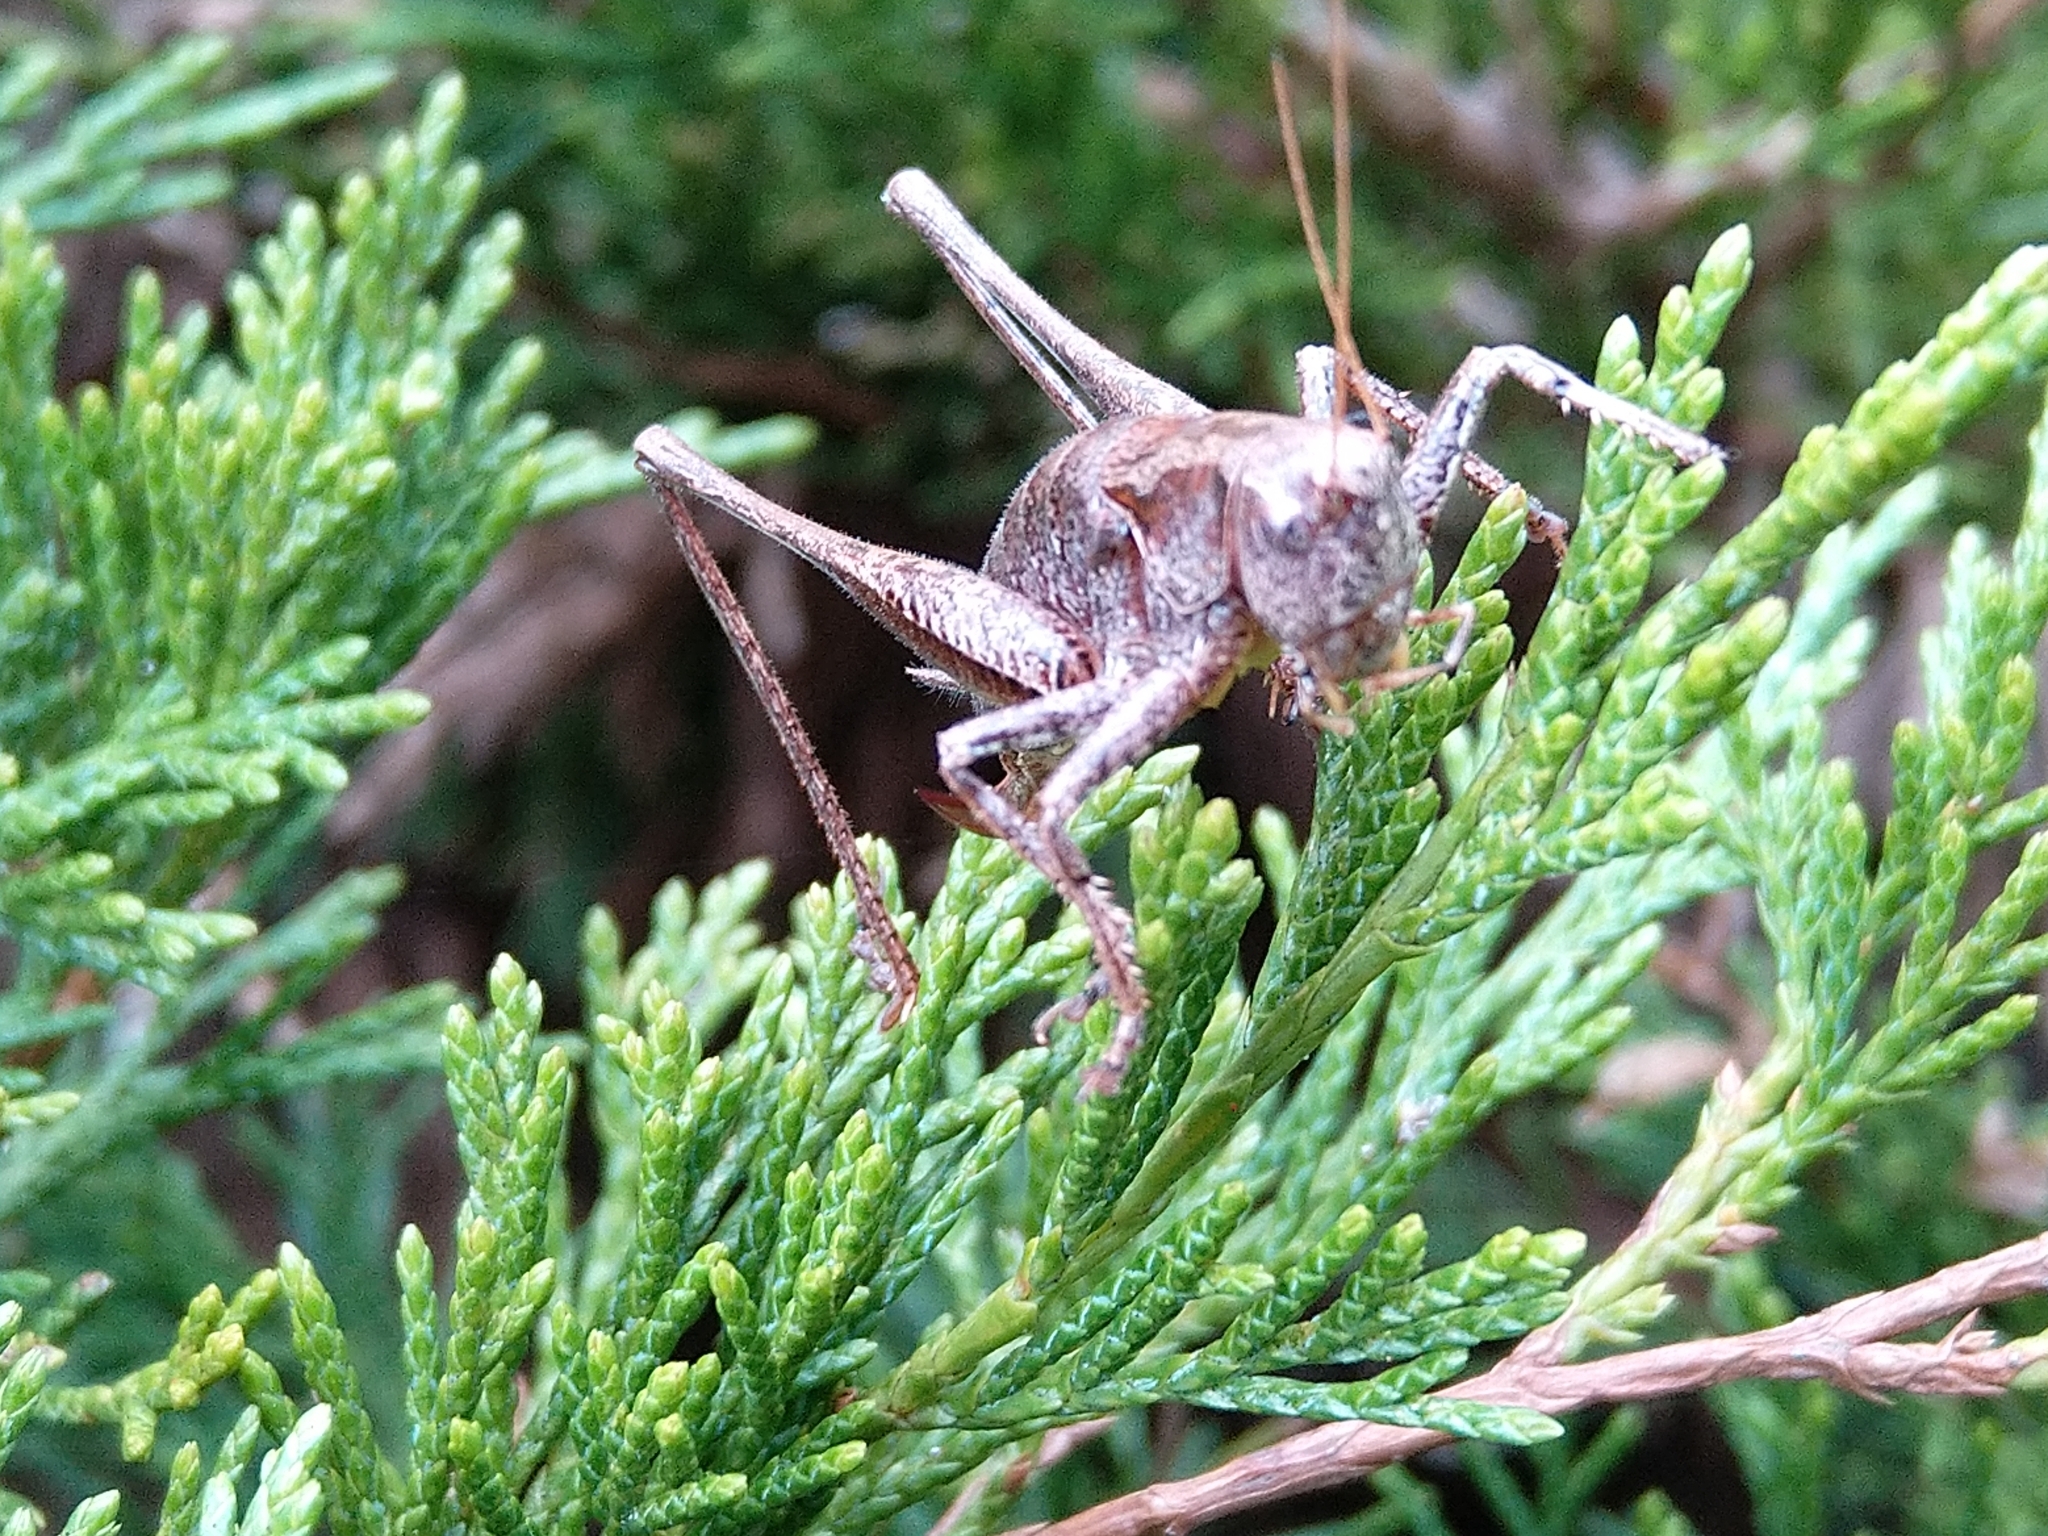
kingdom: Animalia
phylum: Arthropoda
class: Insecta
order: Orthoptera
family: Tettigoniidae
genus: Pholidoptera
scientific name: Pholidoptera griseoaptera
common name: Dark bush-cricket
